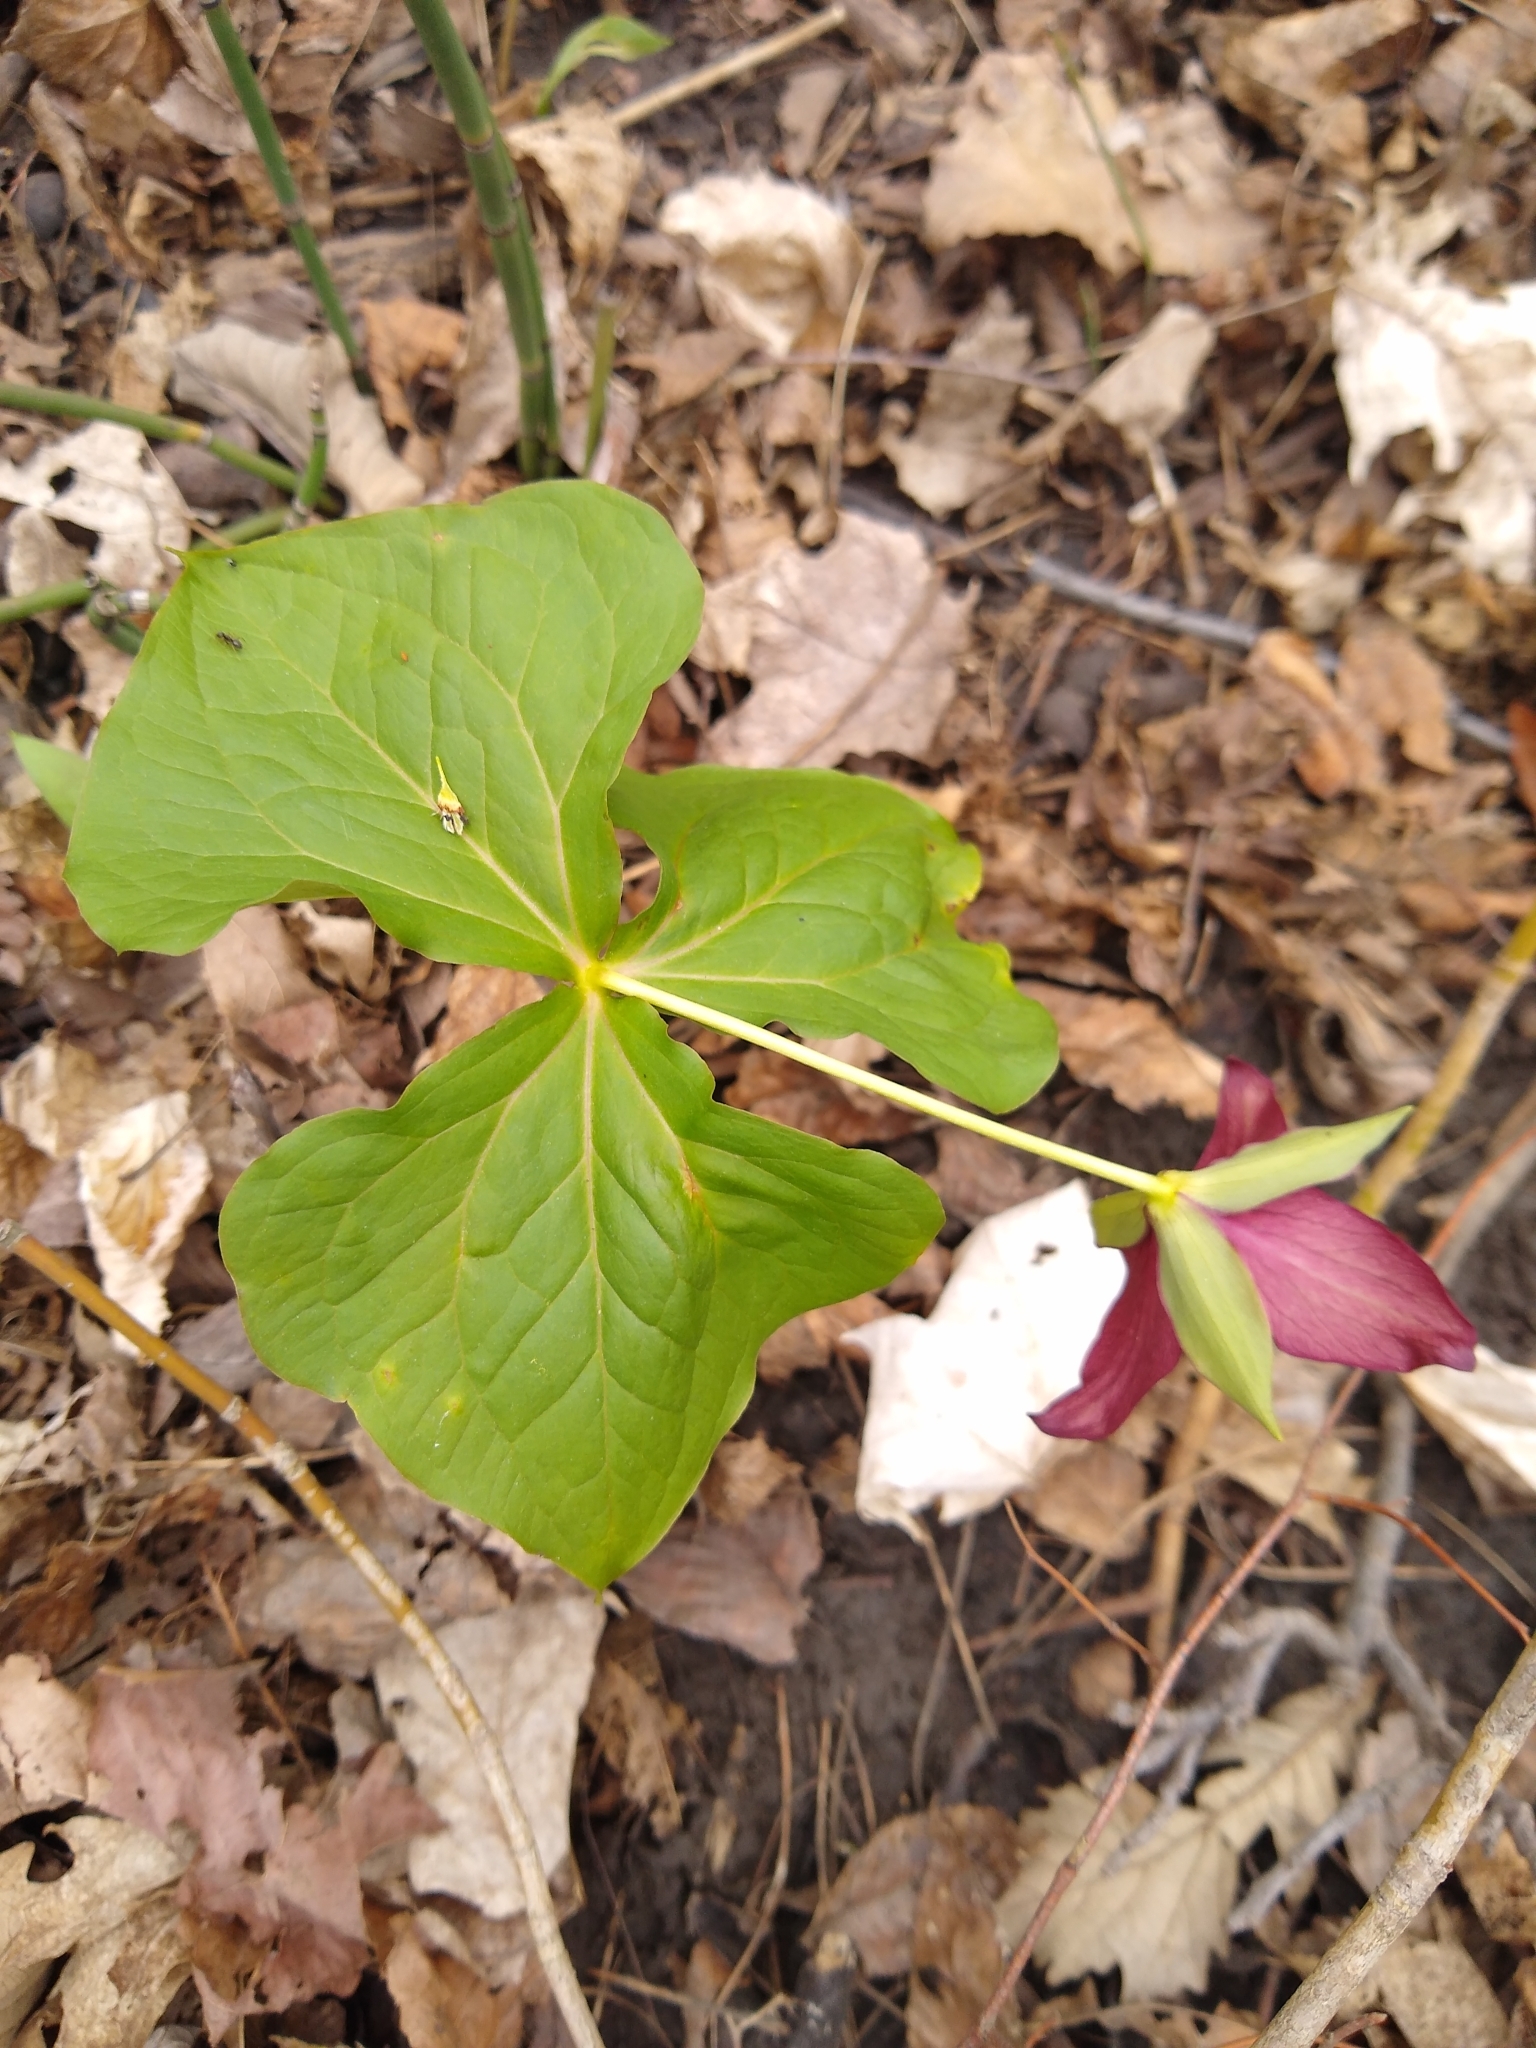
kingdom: Plantae
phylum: Tracheophyta
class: Liliopsida
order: Liliales
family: Melanthiaceae
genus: Trillium
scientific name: Trillium erectum
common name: Purple trillium
